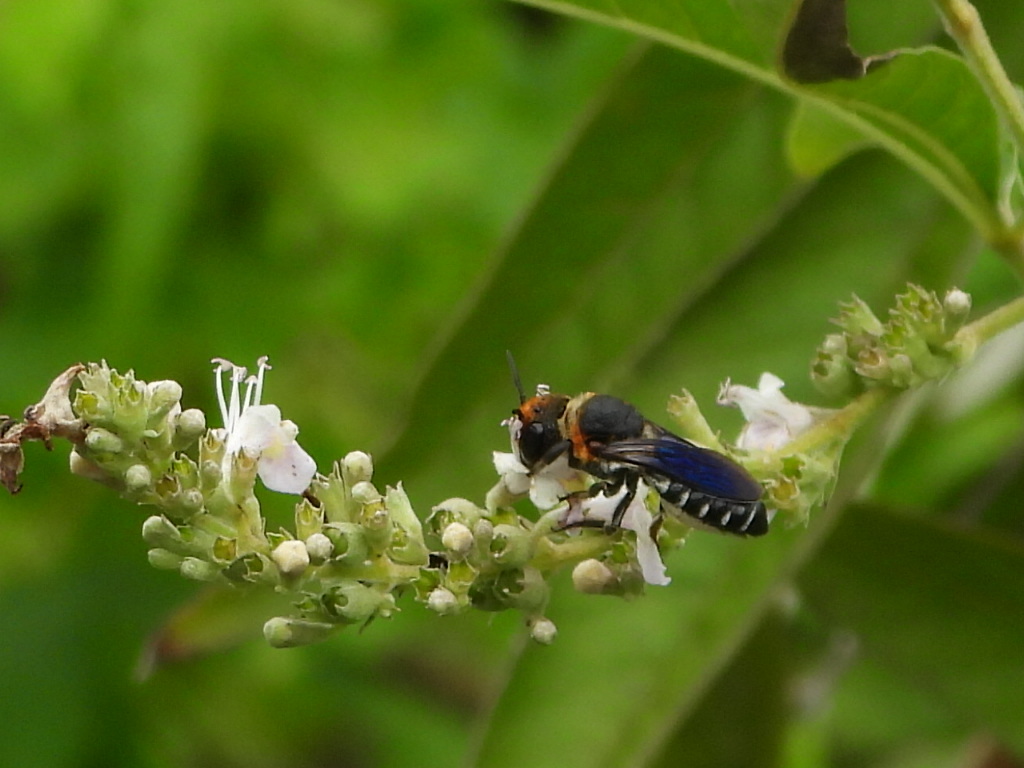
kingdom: Animalia
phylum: Arthropoda
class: Insecta
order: Hymenoptera
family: Megachilidae
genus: Megachile
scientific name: Megachile faceta
